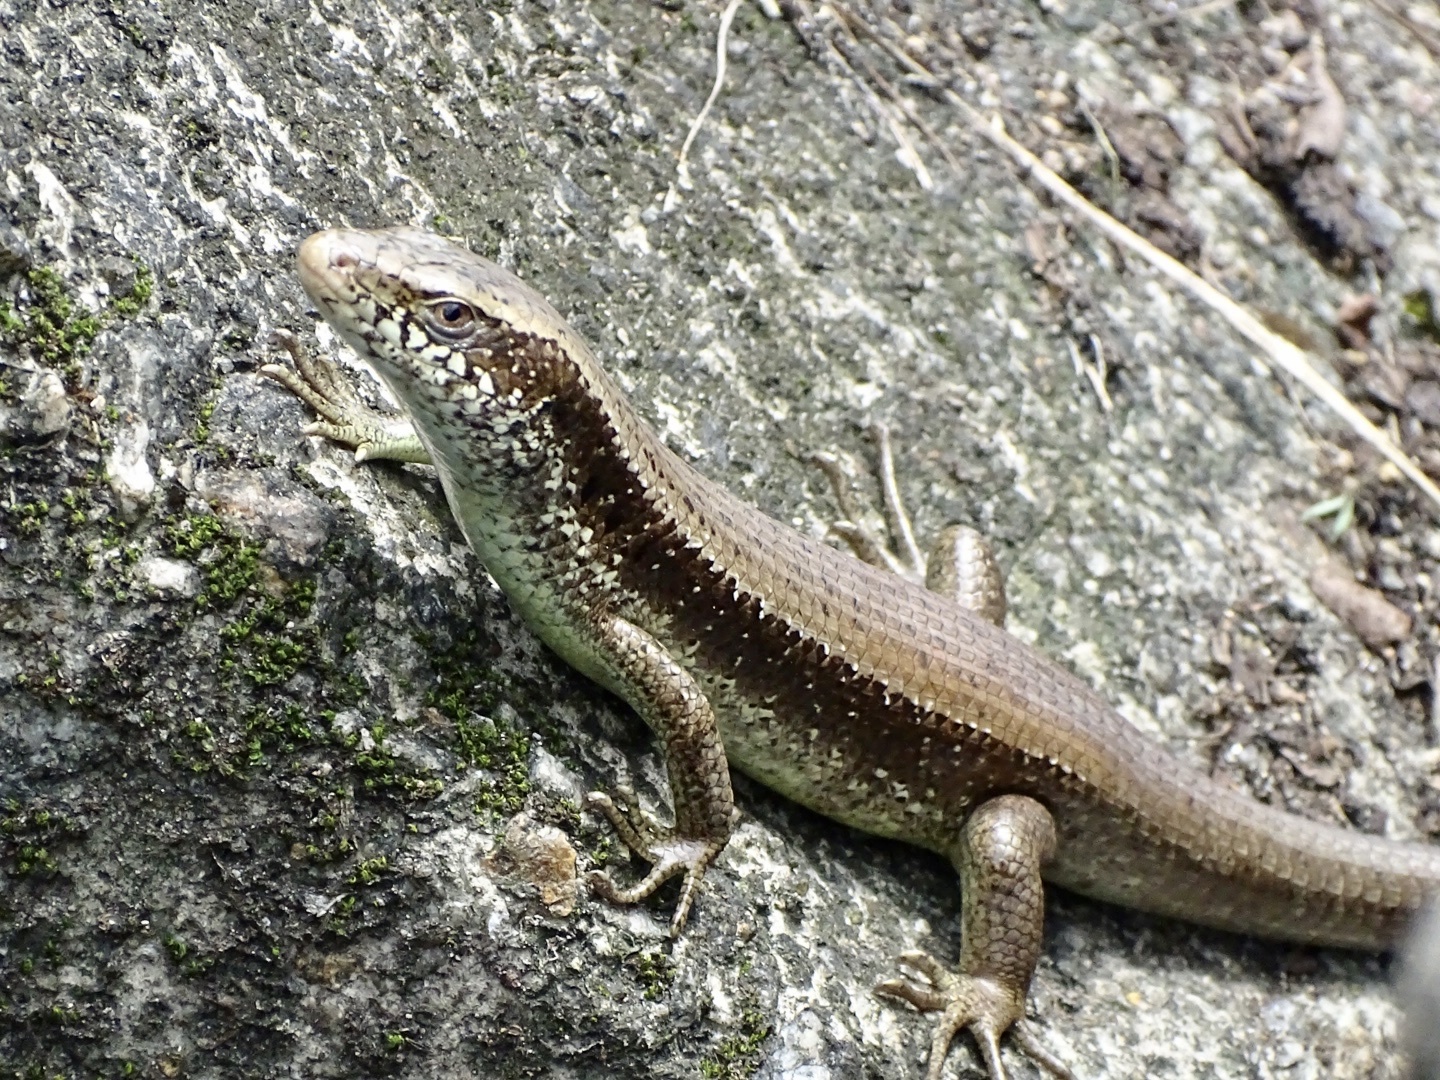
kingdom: Animalia
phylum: Chordata
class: Squamata
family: Scincidae
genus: Eutropis
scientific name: Eutropis longicaudata
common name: Long-tailed sun skink
